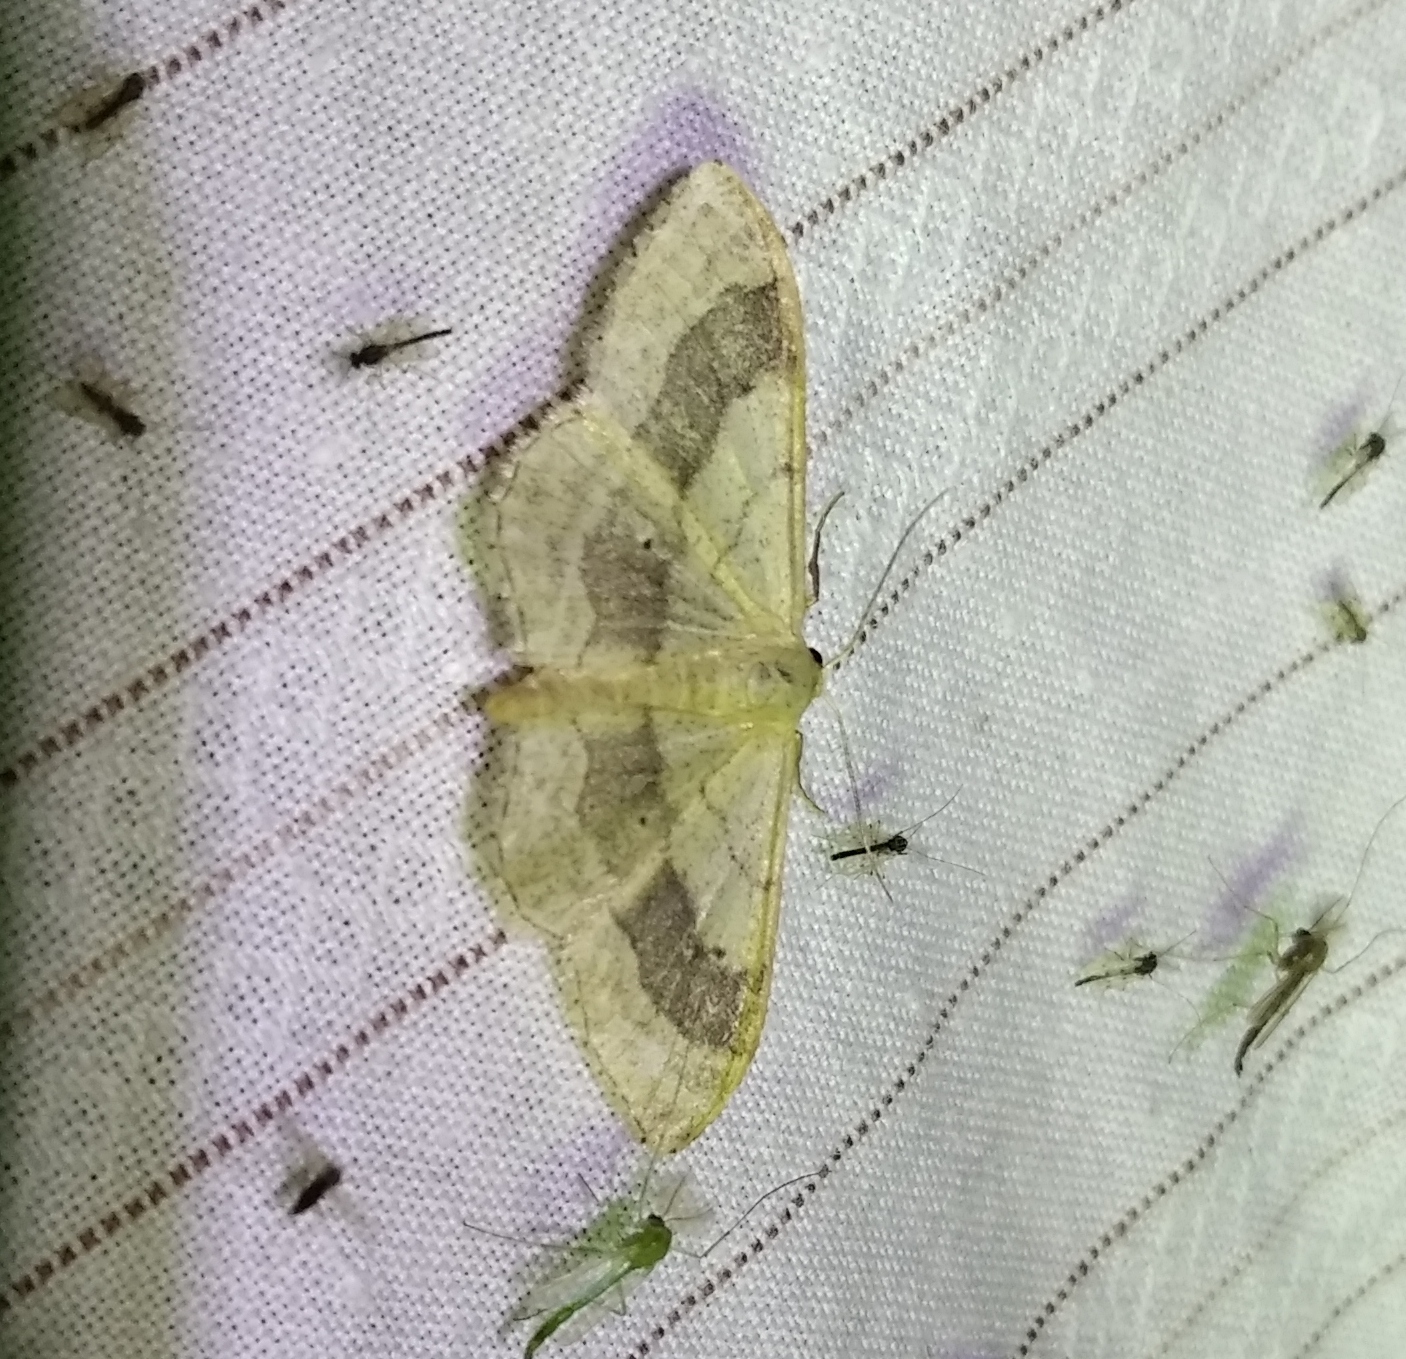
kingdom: Animalia
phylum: Arthropoda
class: Insecta
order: Lepidoptera
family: Geometridae
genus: Idaea
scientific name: Idaea aversata
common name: Riband wave
